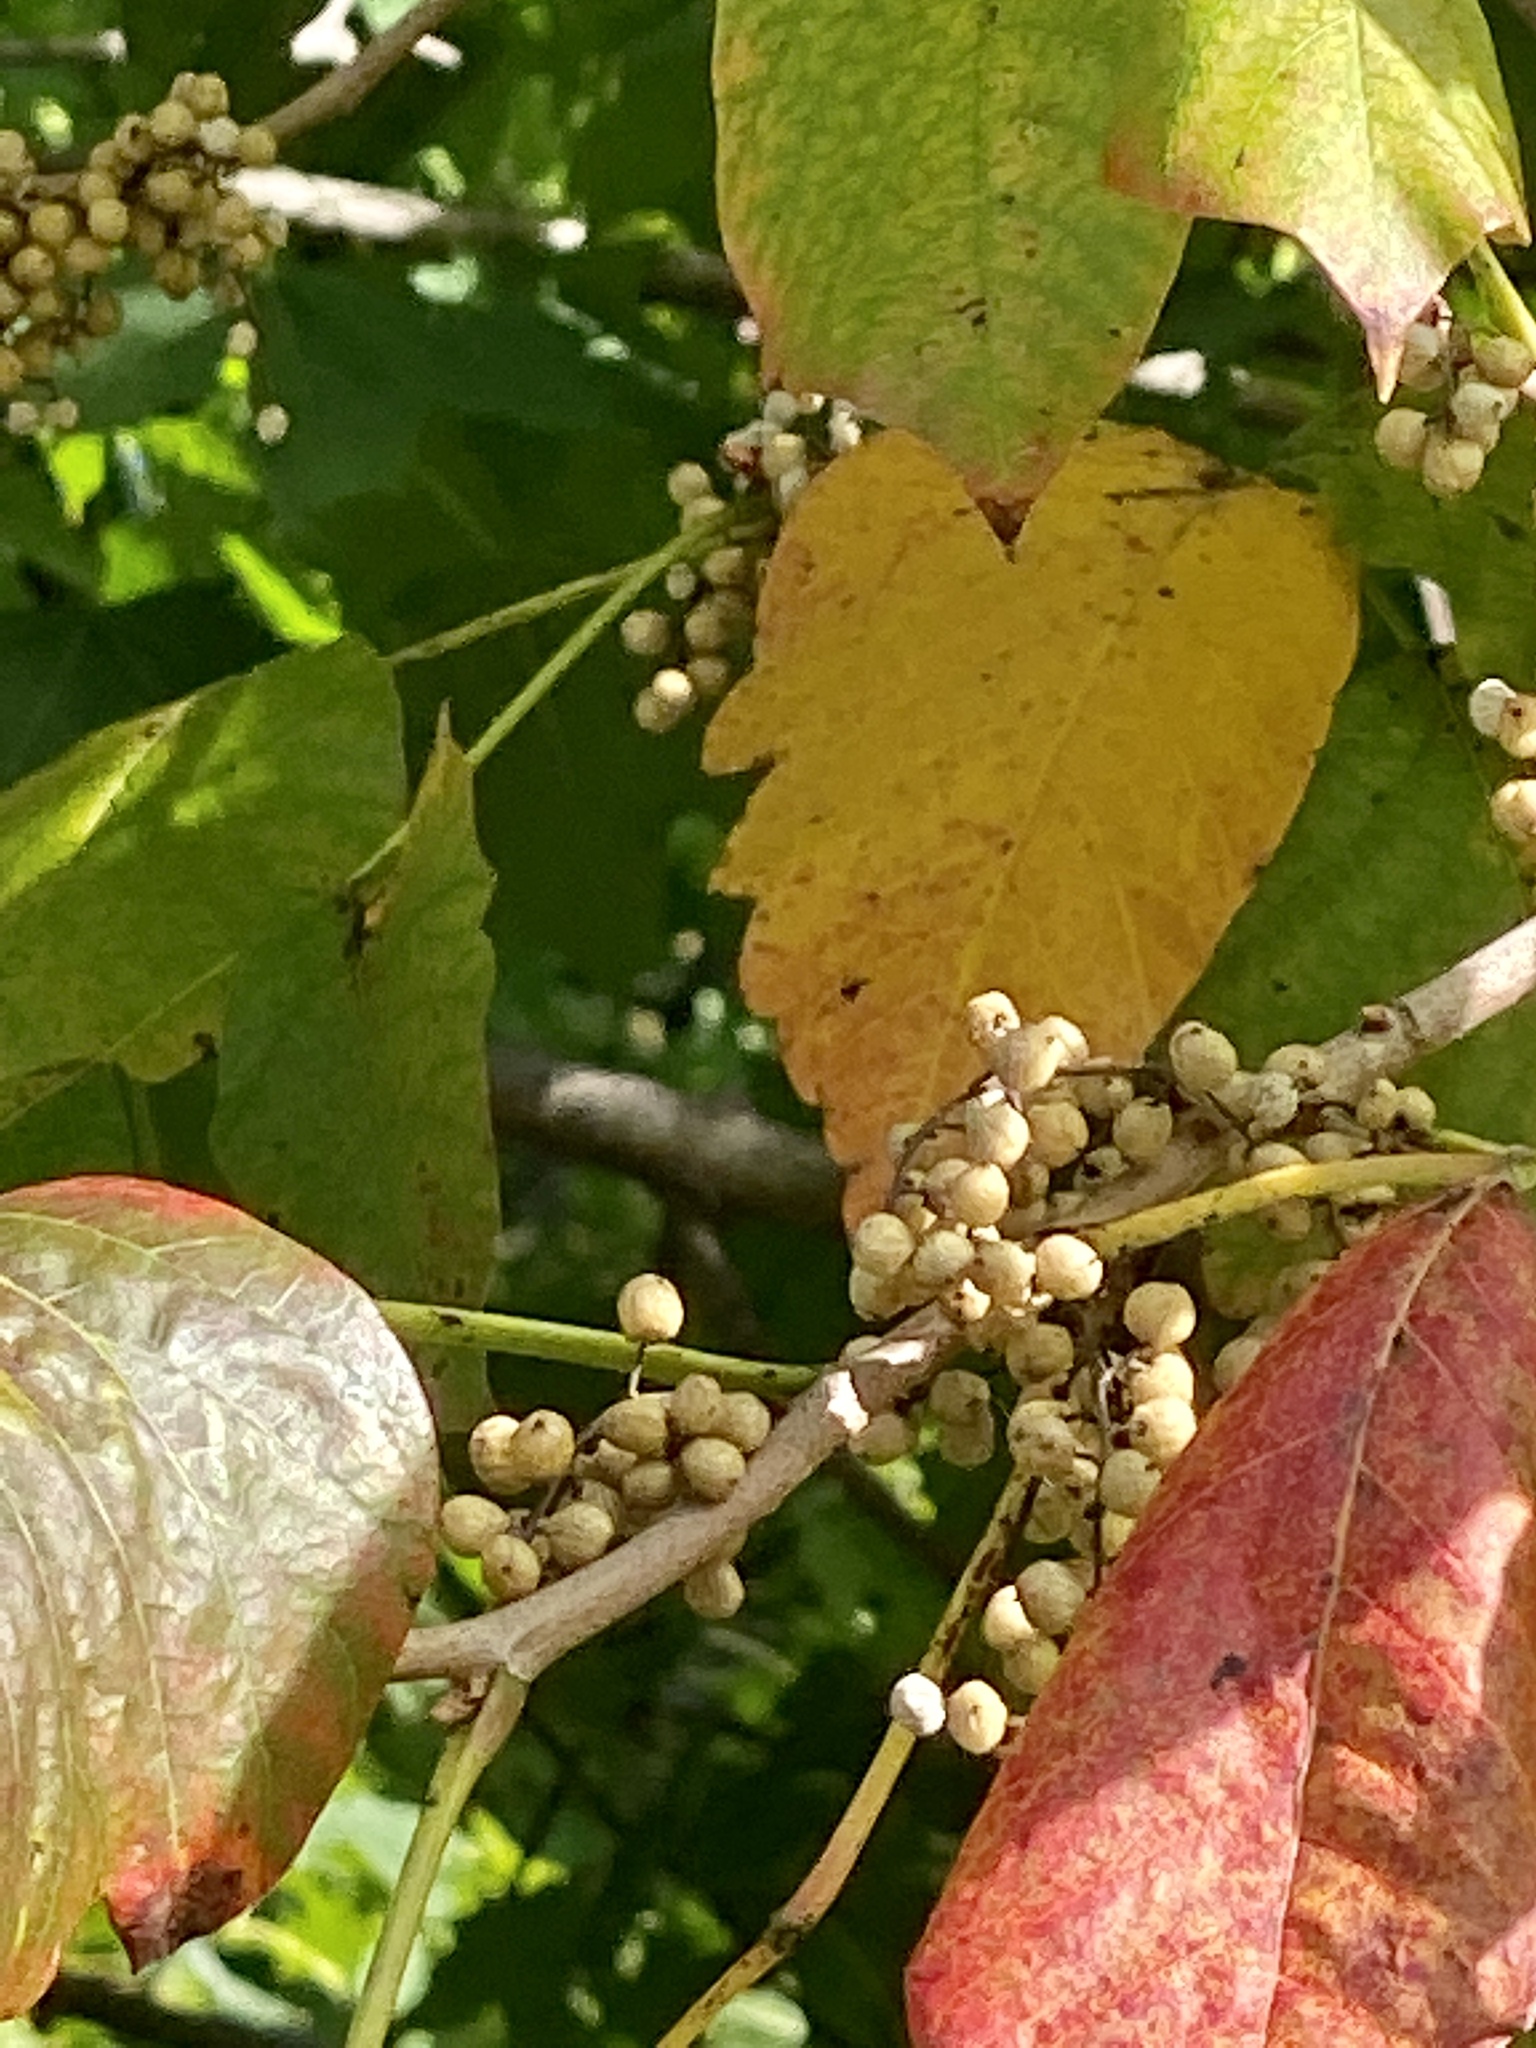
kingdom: Plantae
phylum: Tracheophyta
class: Magnoliopsida
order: Sapindales
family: Anacardiaceae
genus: Toxicodendron
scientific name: Toxicodendron radicans
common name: Poison ivy
